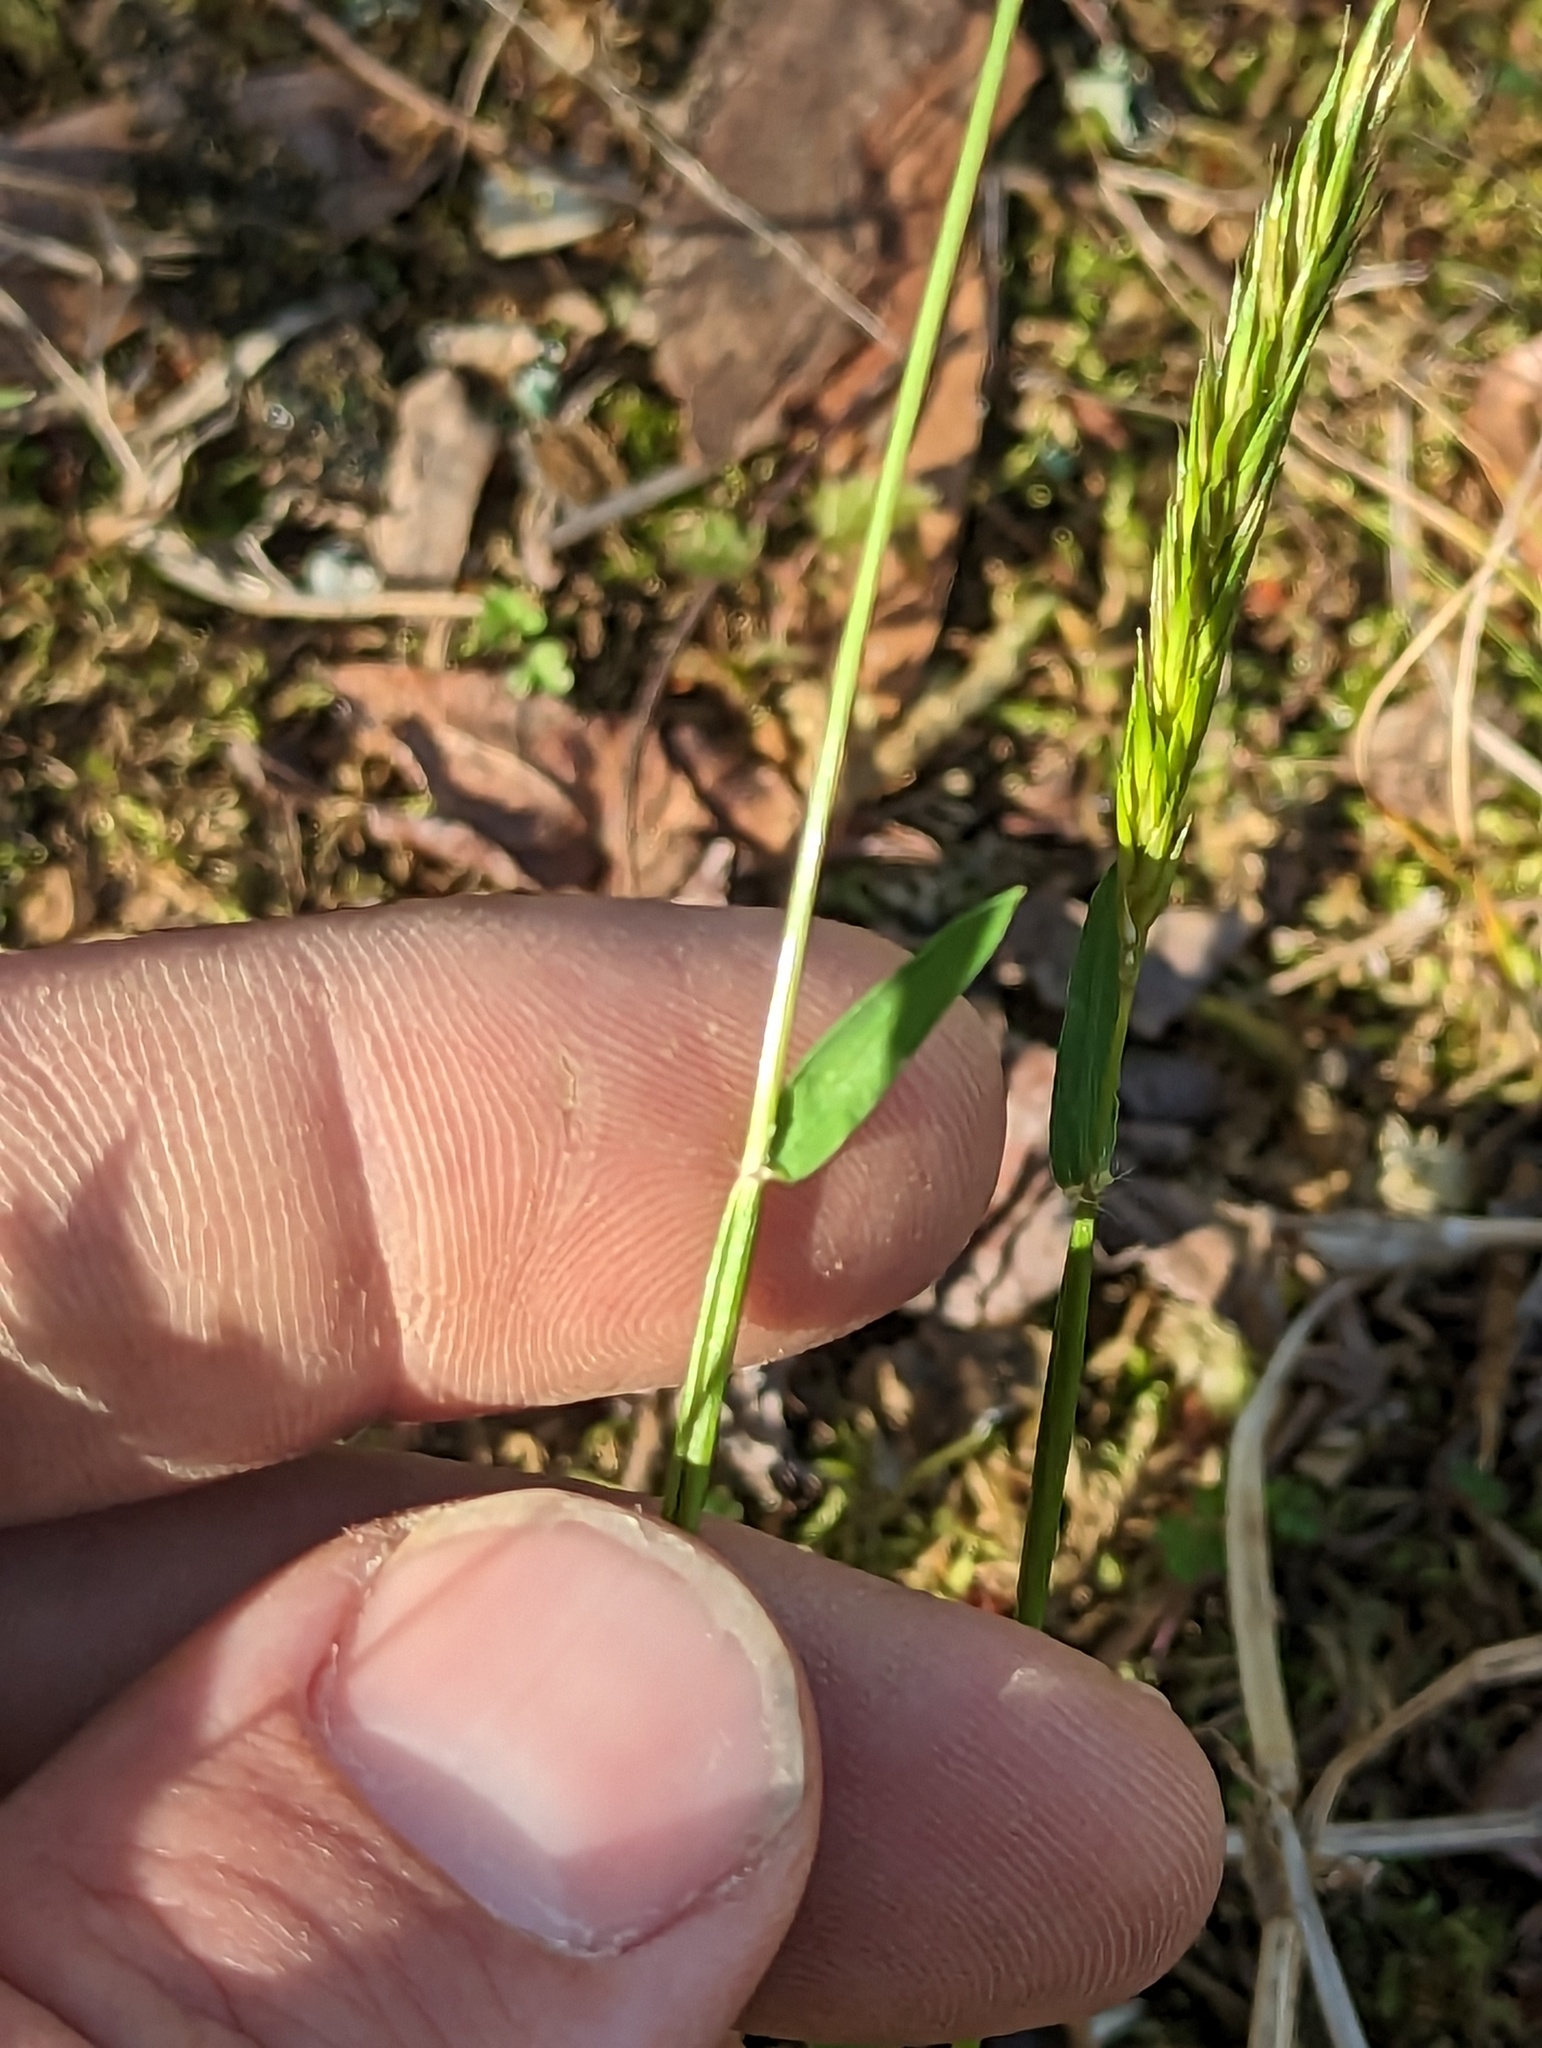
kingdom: Plantae
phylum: Tracheophyta
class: Liliopsida
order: Poales
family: Poaceae
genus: Anthoxanthum
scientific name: Anthoxanthum odoratum
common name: Sweet vernalgrass
